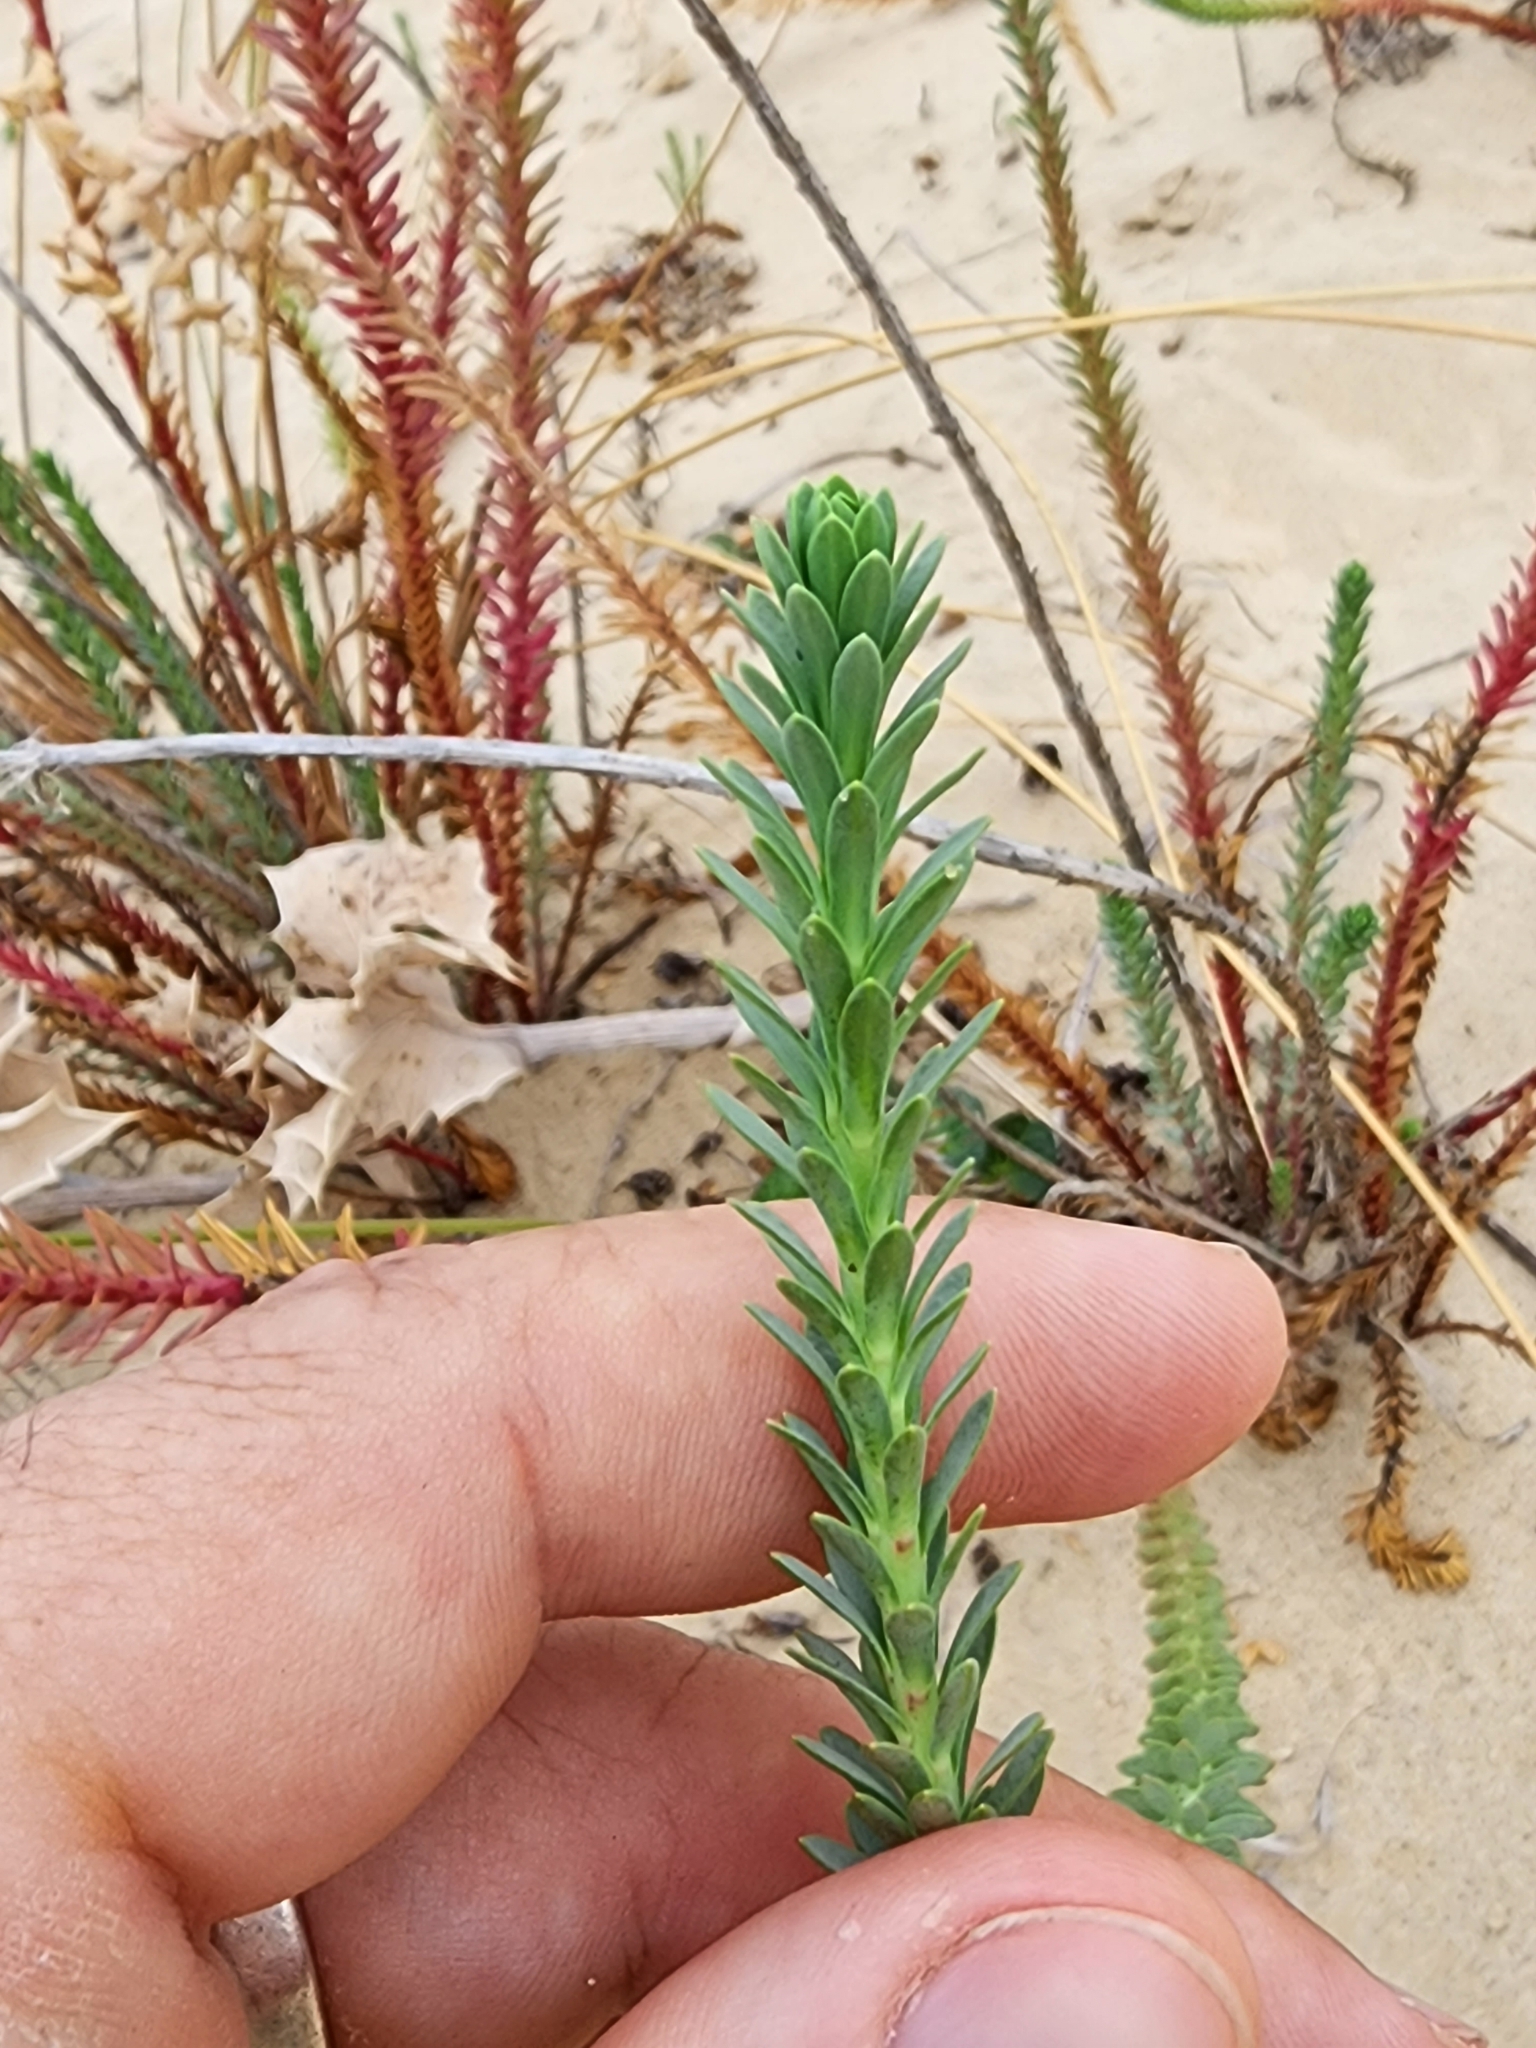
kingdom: Plantae
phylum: Tracheophyta
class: Magnoliopsida
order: Malpighiales
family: Euphorbiaceae
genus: Euphorbia
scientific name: Euphorbia paralias
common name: Sea spurge
